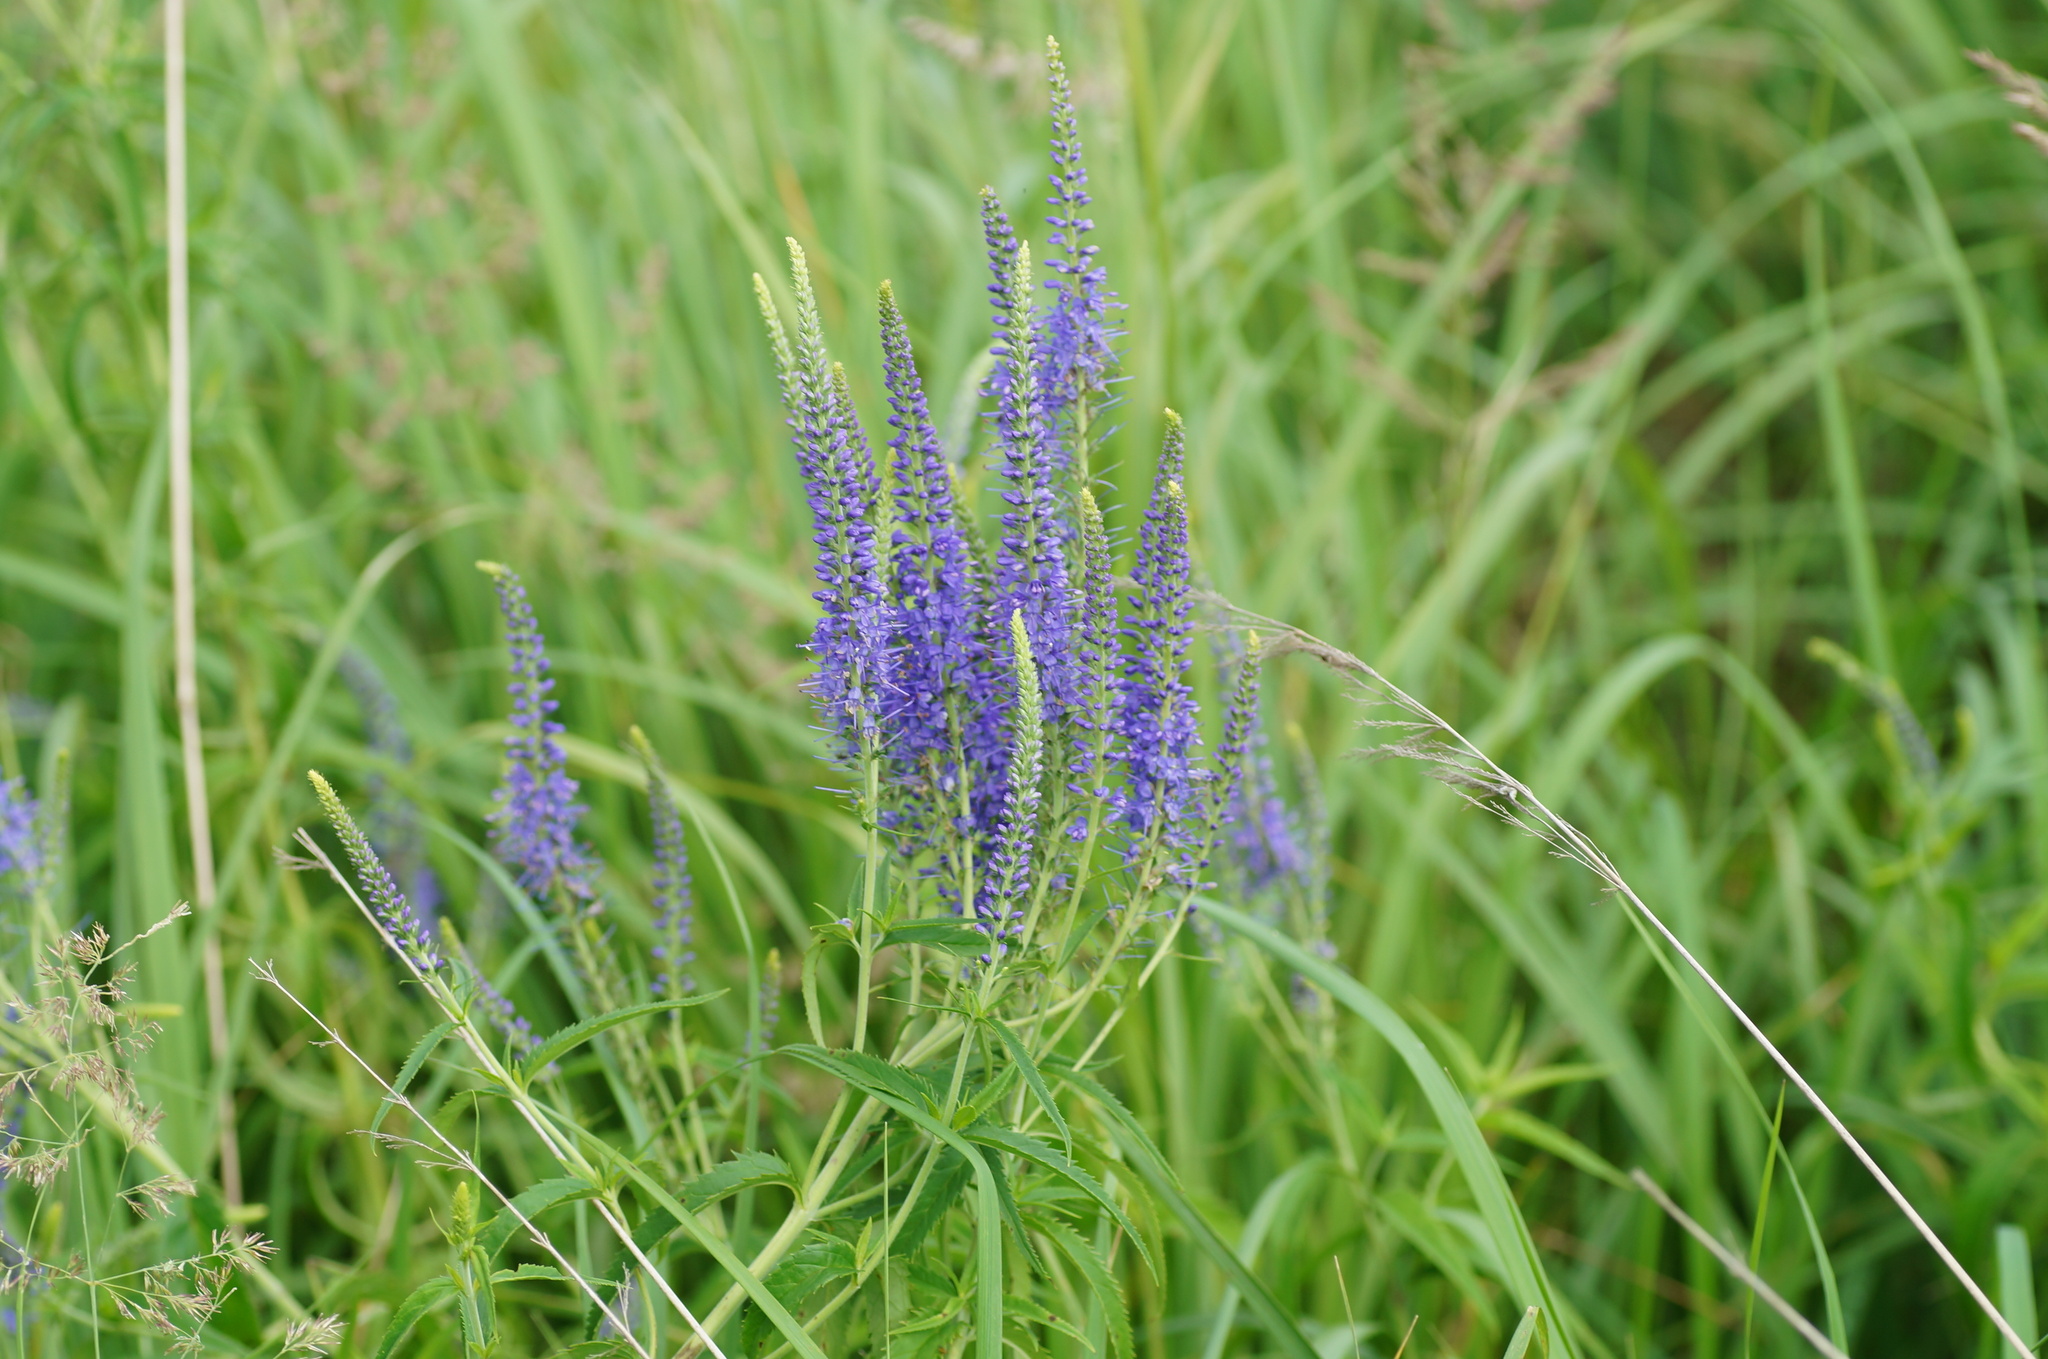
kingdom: Plantae
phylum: Tracheophyta
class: Magnoliopsida
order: Lamiales
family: Plantaginaceae
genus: Veronica
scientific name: Veronica longifolia
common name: Garden speedwell
